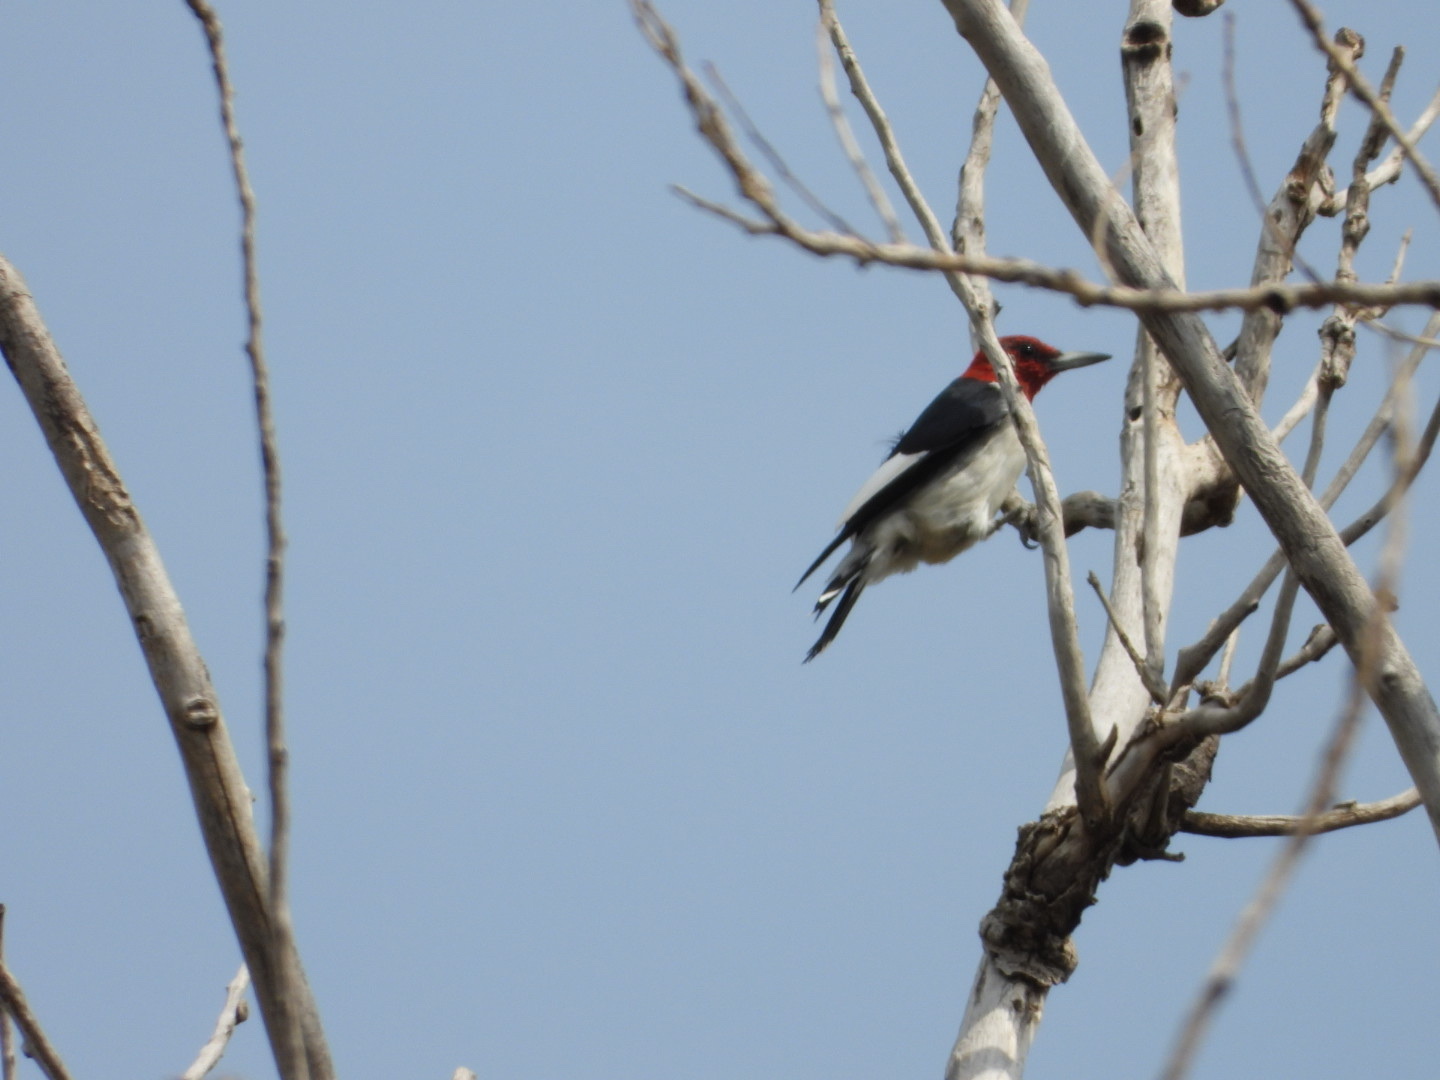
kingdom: Animalia
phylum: Chordata
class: Aves
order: Piciformes
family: Picidae
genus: Melanerpes
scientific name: Melanerpes erythrocephalus
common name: Red-headed woodpecker
